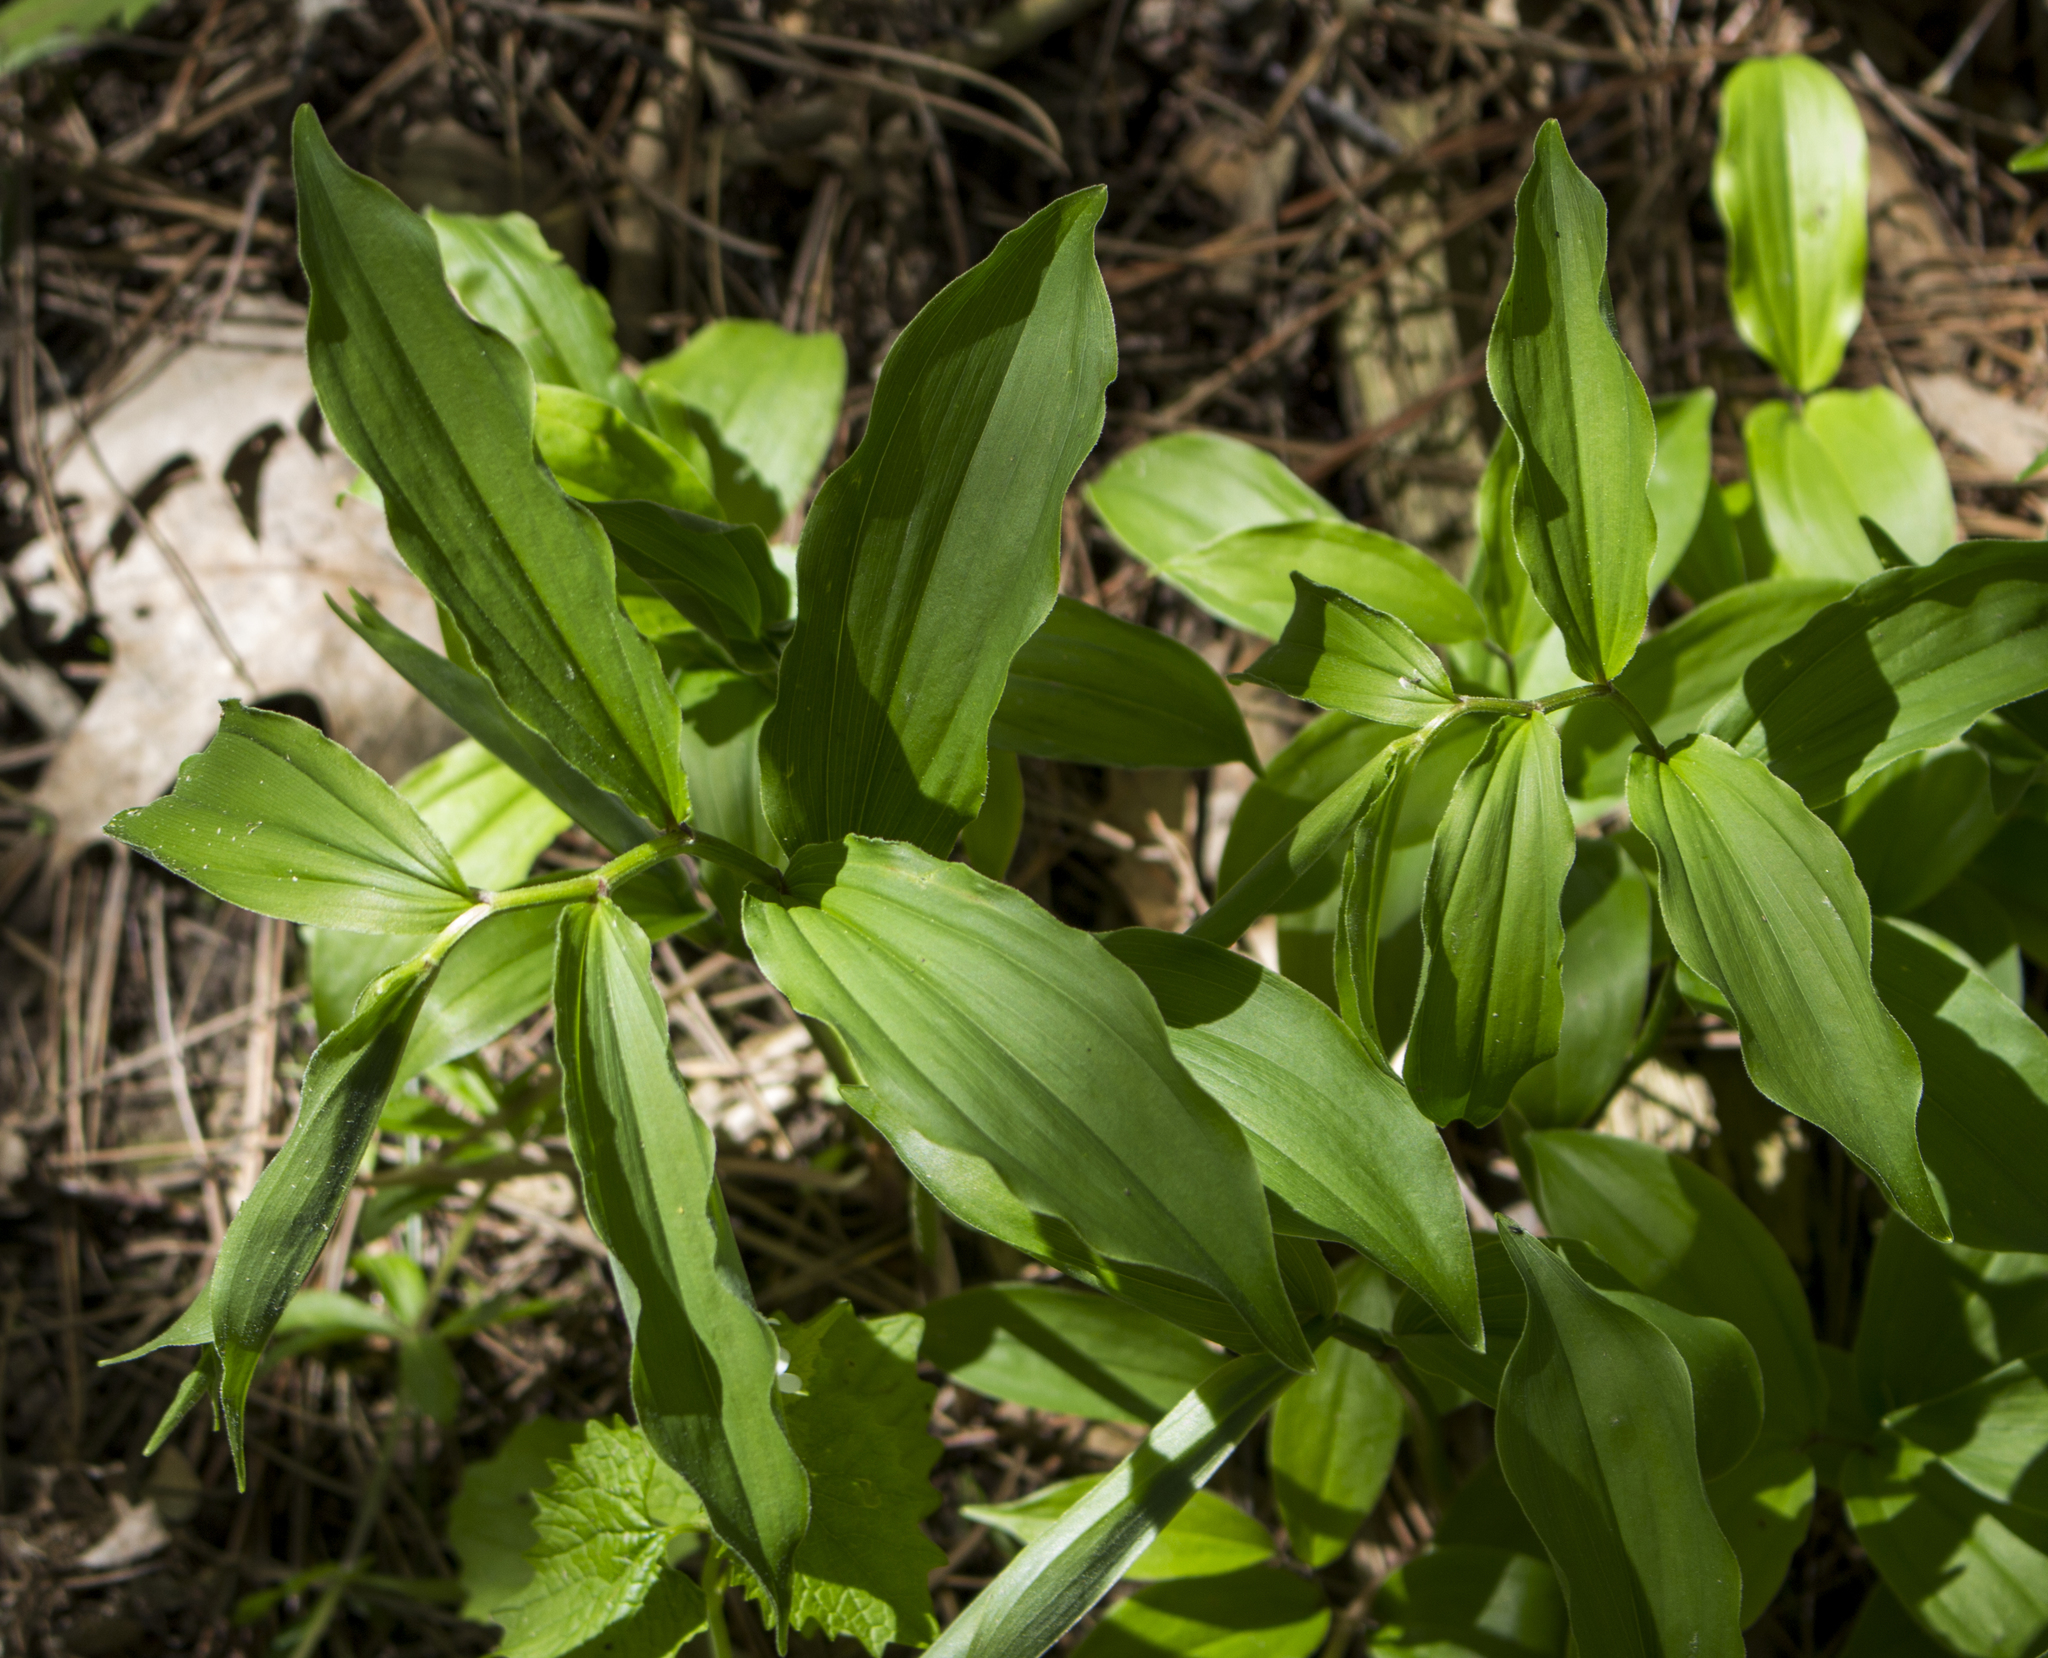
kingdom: Plantae
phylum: Tracheophyta
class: Liliopsida
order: Asparagales
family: Asparagaceae
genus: Maianthemum
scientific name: Maianthemum racemosum
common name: False spikenard
